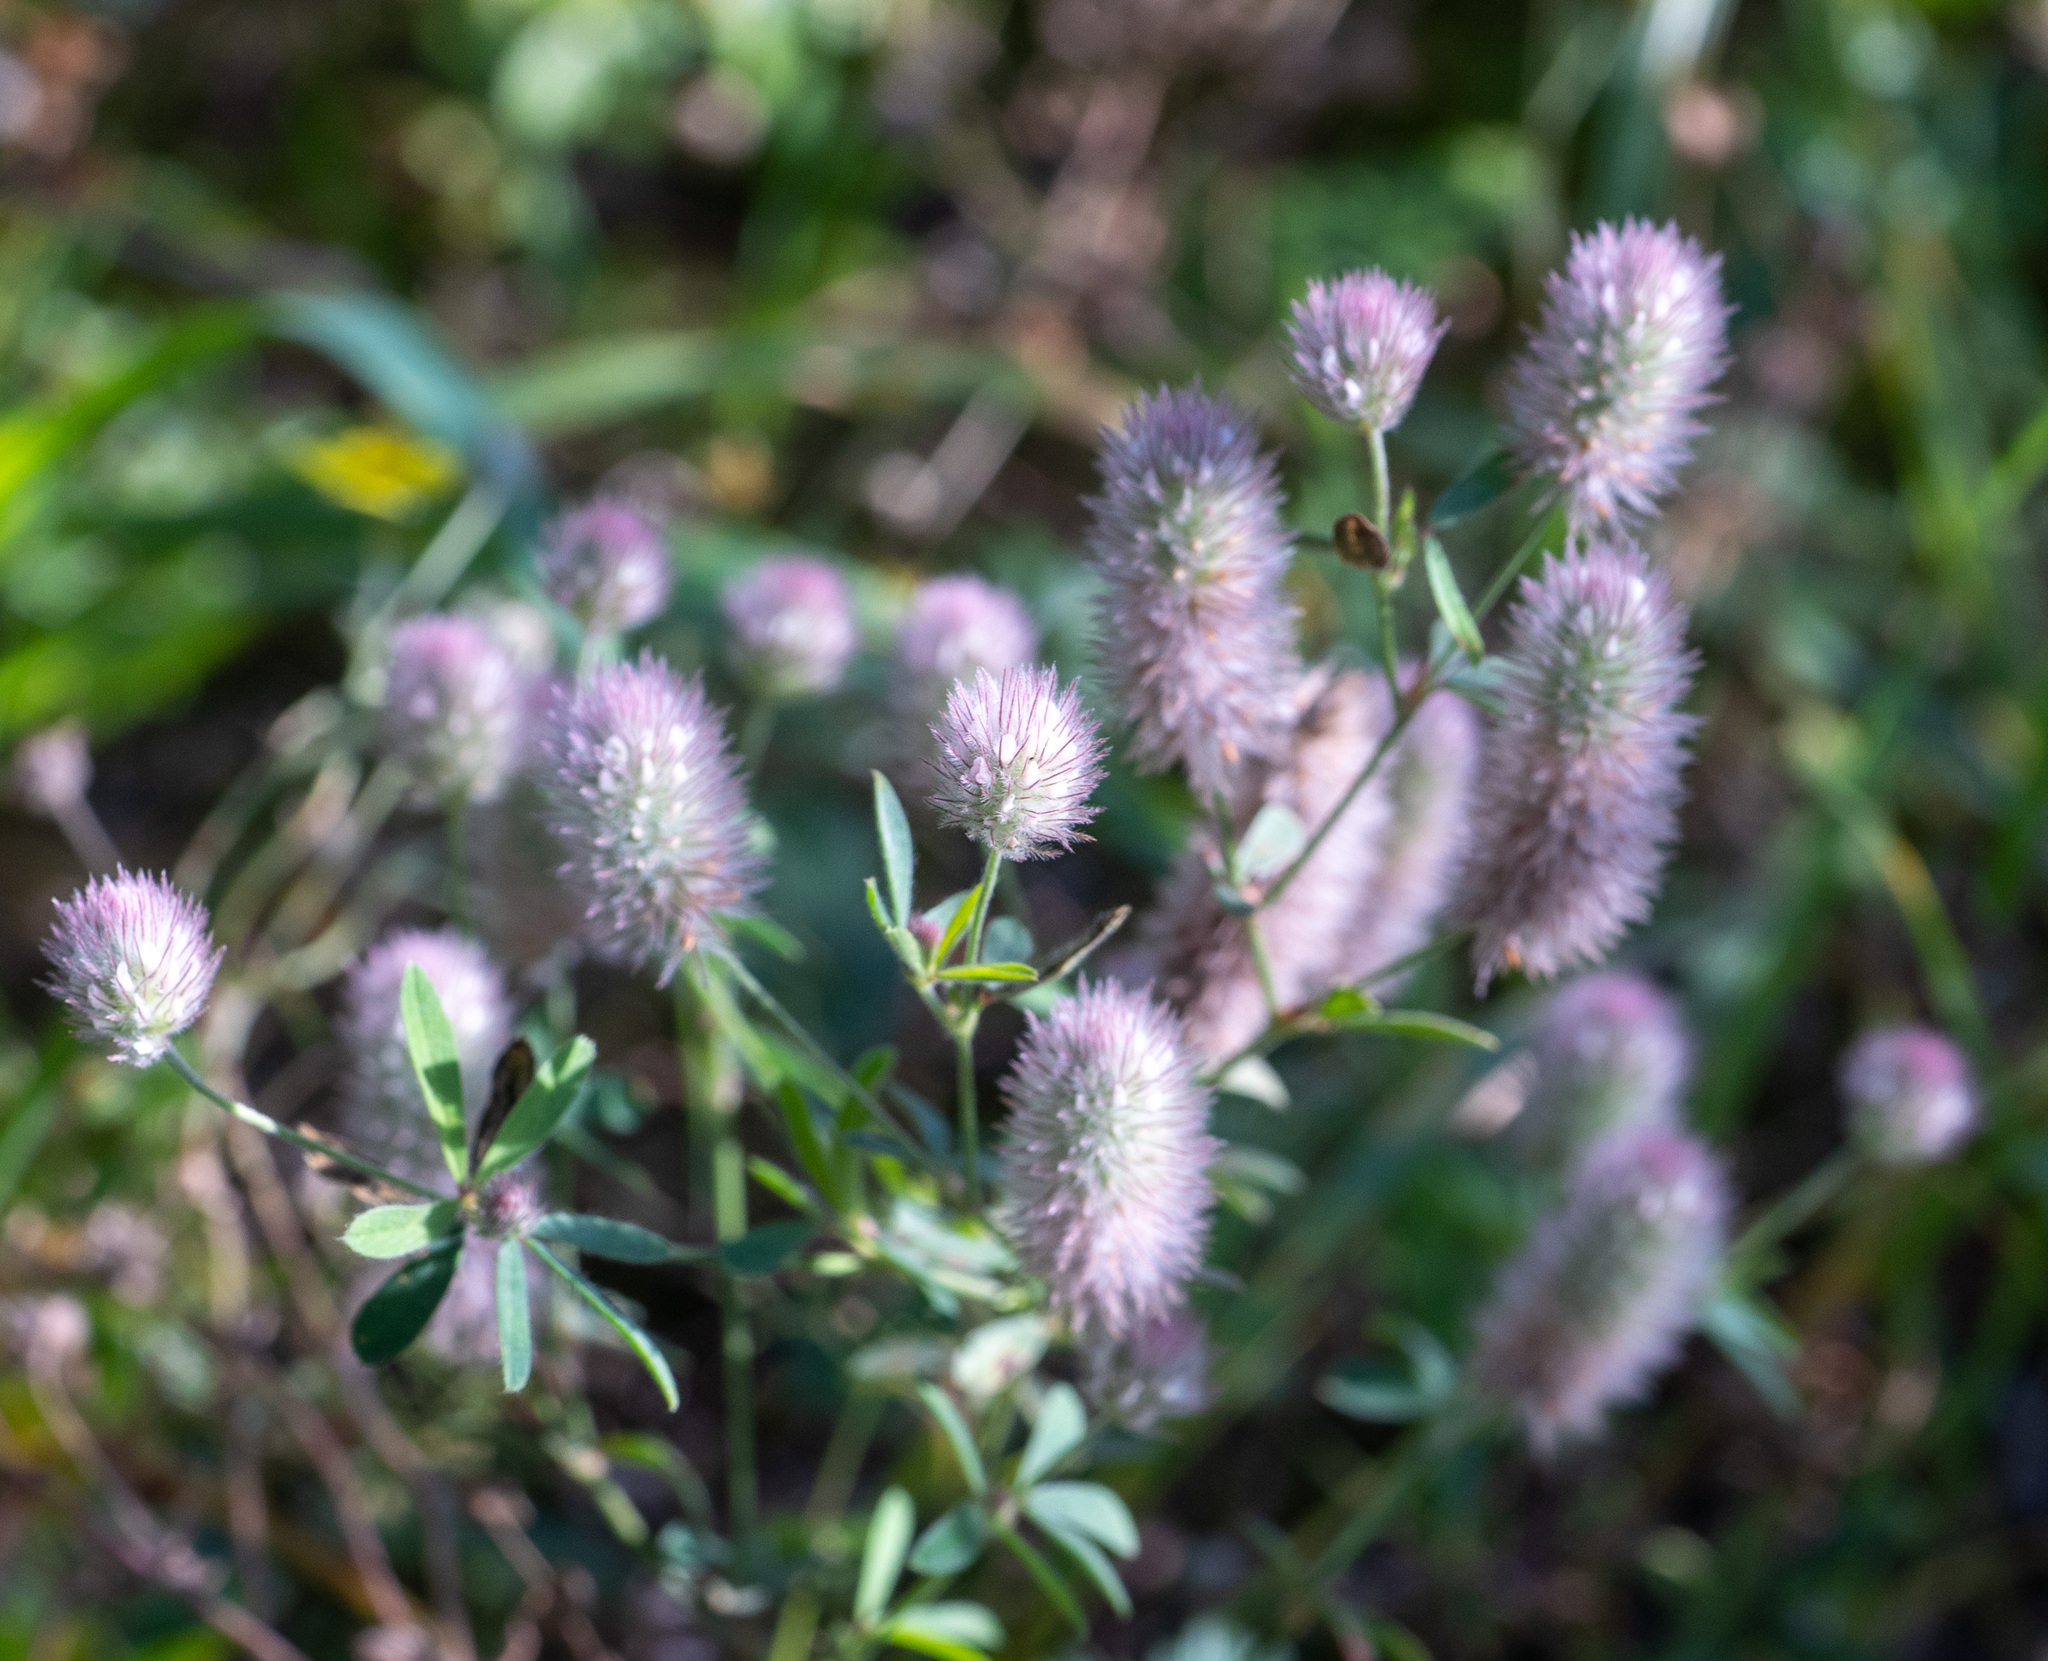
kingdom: Plantae
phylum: Tracheophyta
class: Magnoliopsida
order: Fabales
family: Fabaceae
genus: Trifolium
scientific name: Trifolium arvense
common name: Hare's-foot clover
